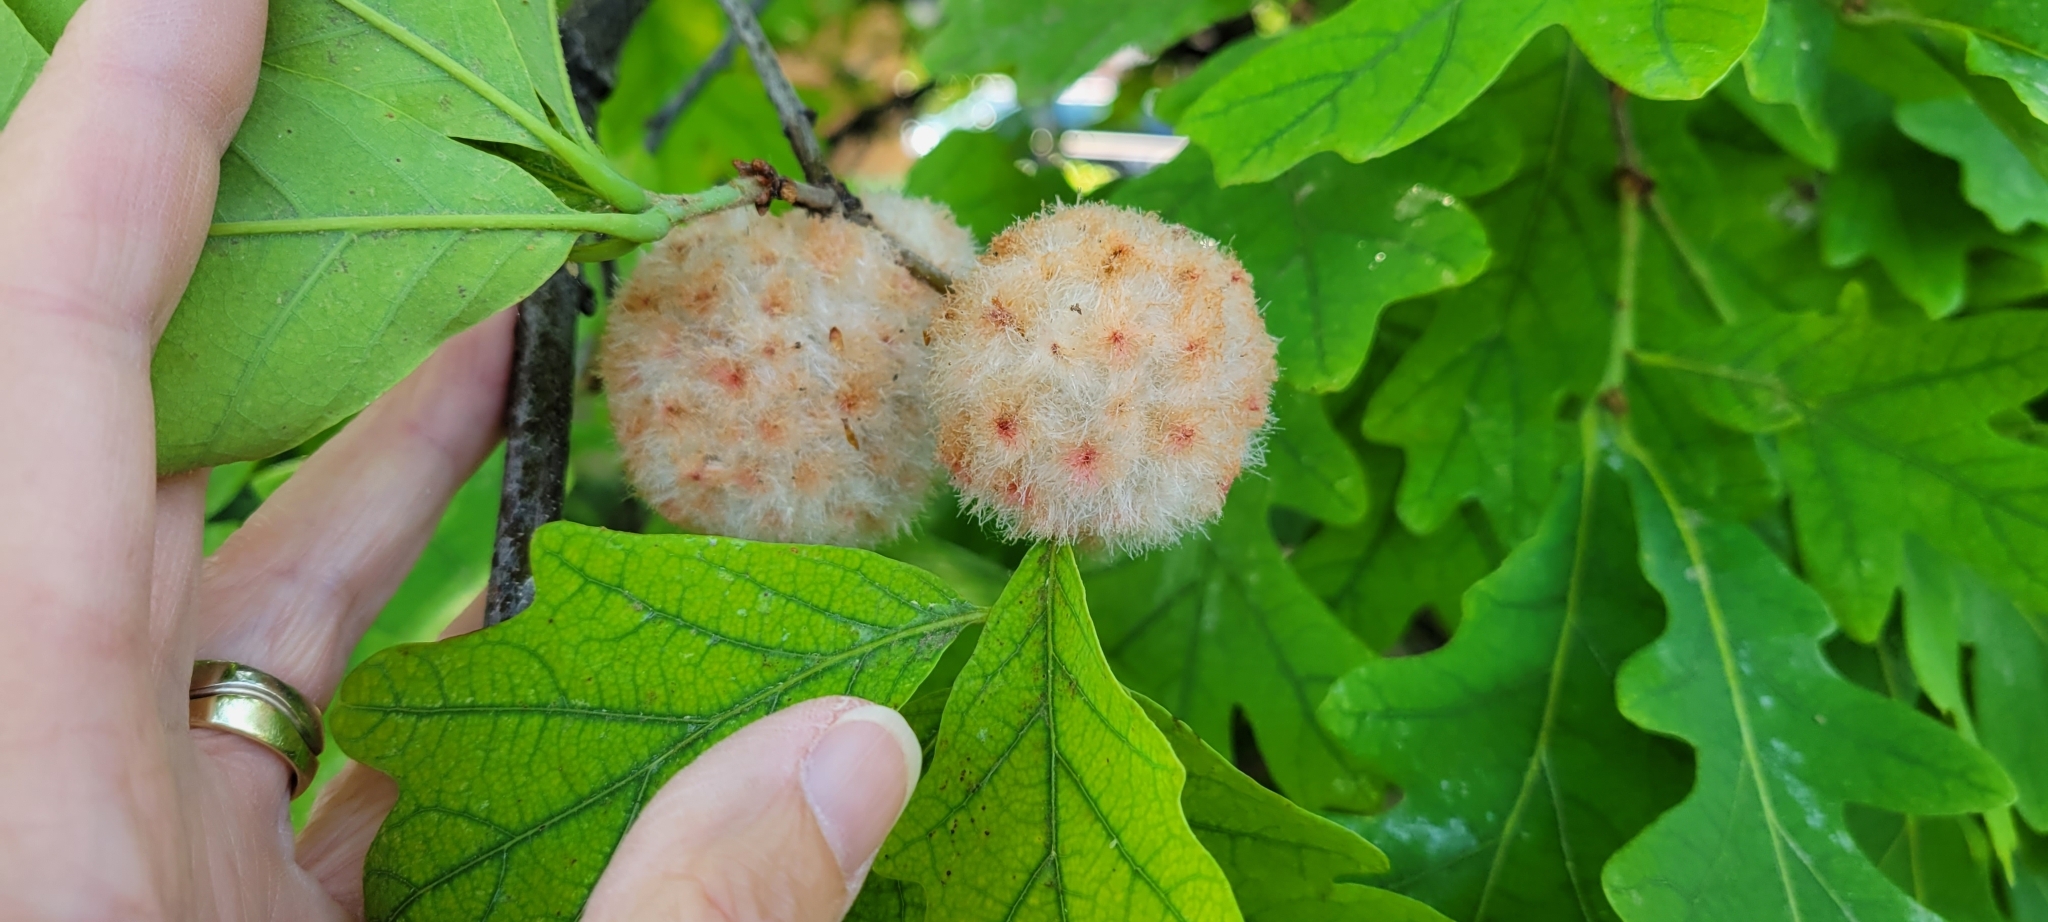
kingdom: Animalia
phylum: Arthropoda
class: Insecta
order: Hymenoptera
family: Cynipidae
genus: Callirhytis
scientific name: Callirhytis
